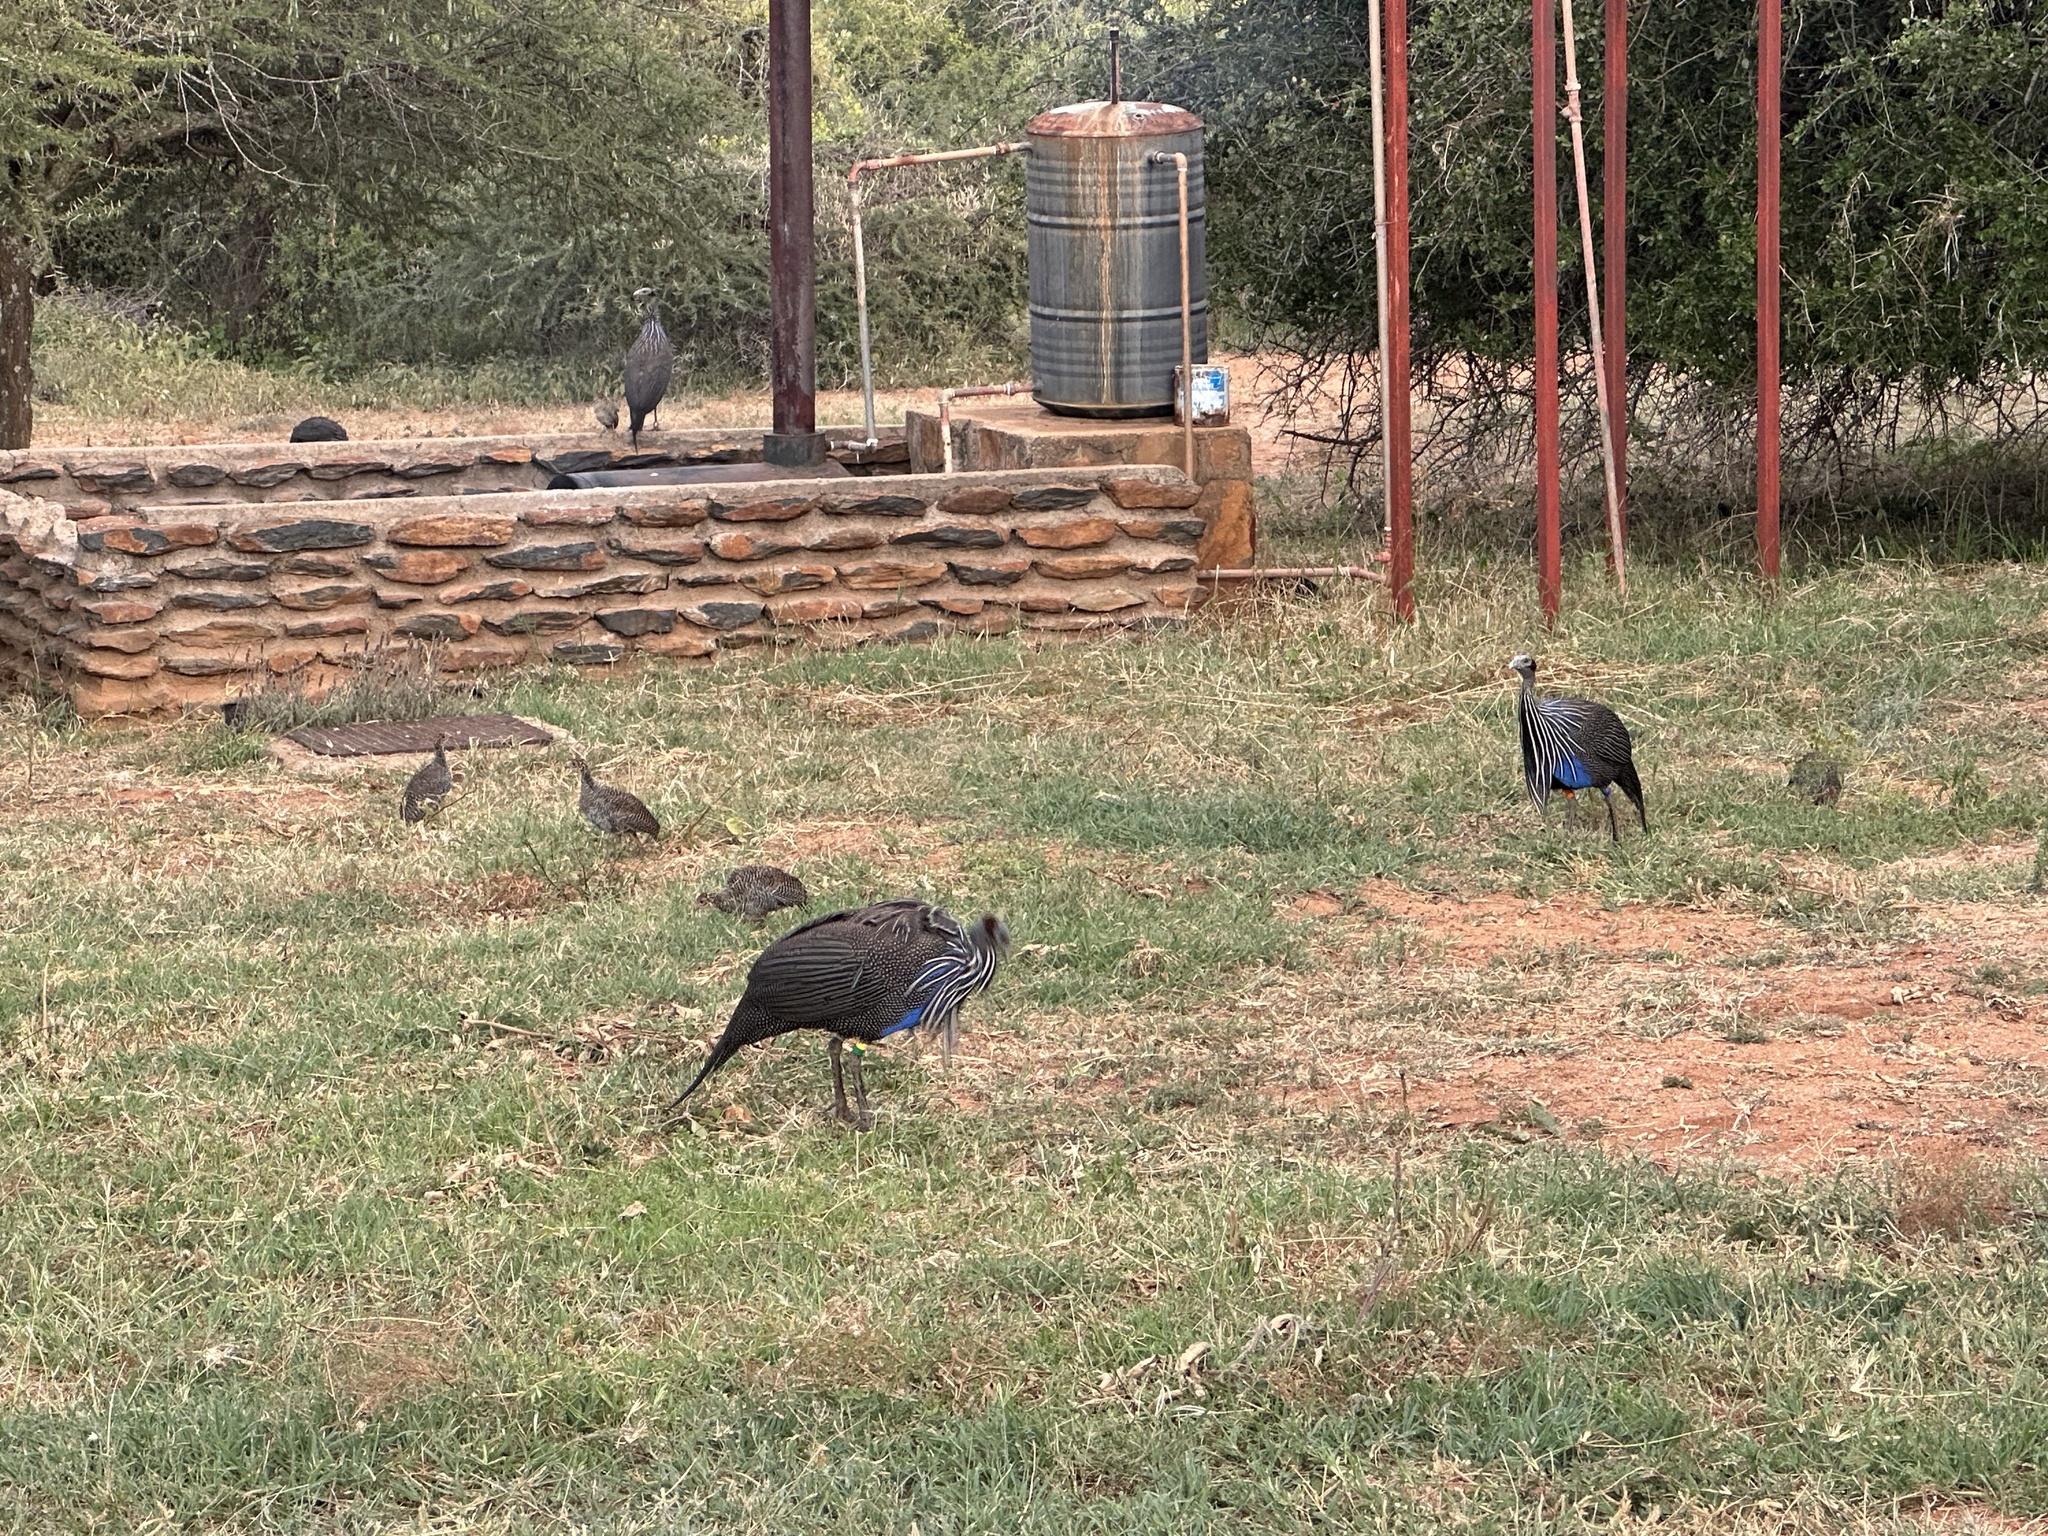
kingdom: Animalia
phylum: Chordata
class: Aves
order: Galliformes
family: Numididae
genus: Acryllium
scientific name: Acryllium vulturinum
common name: Vulturine guineafowl
